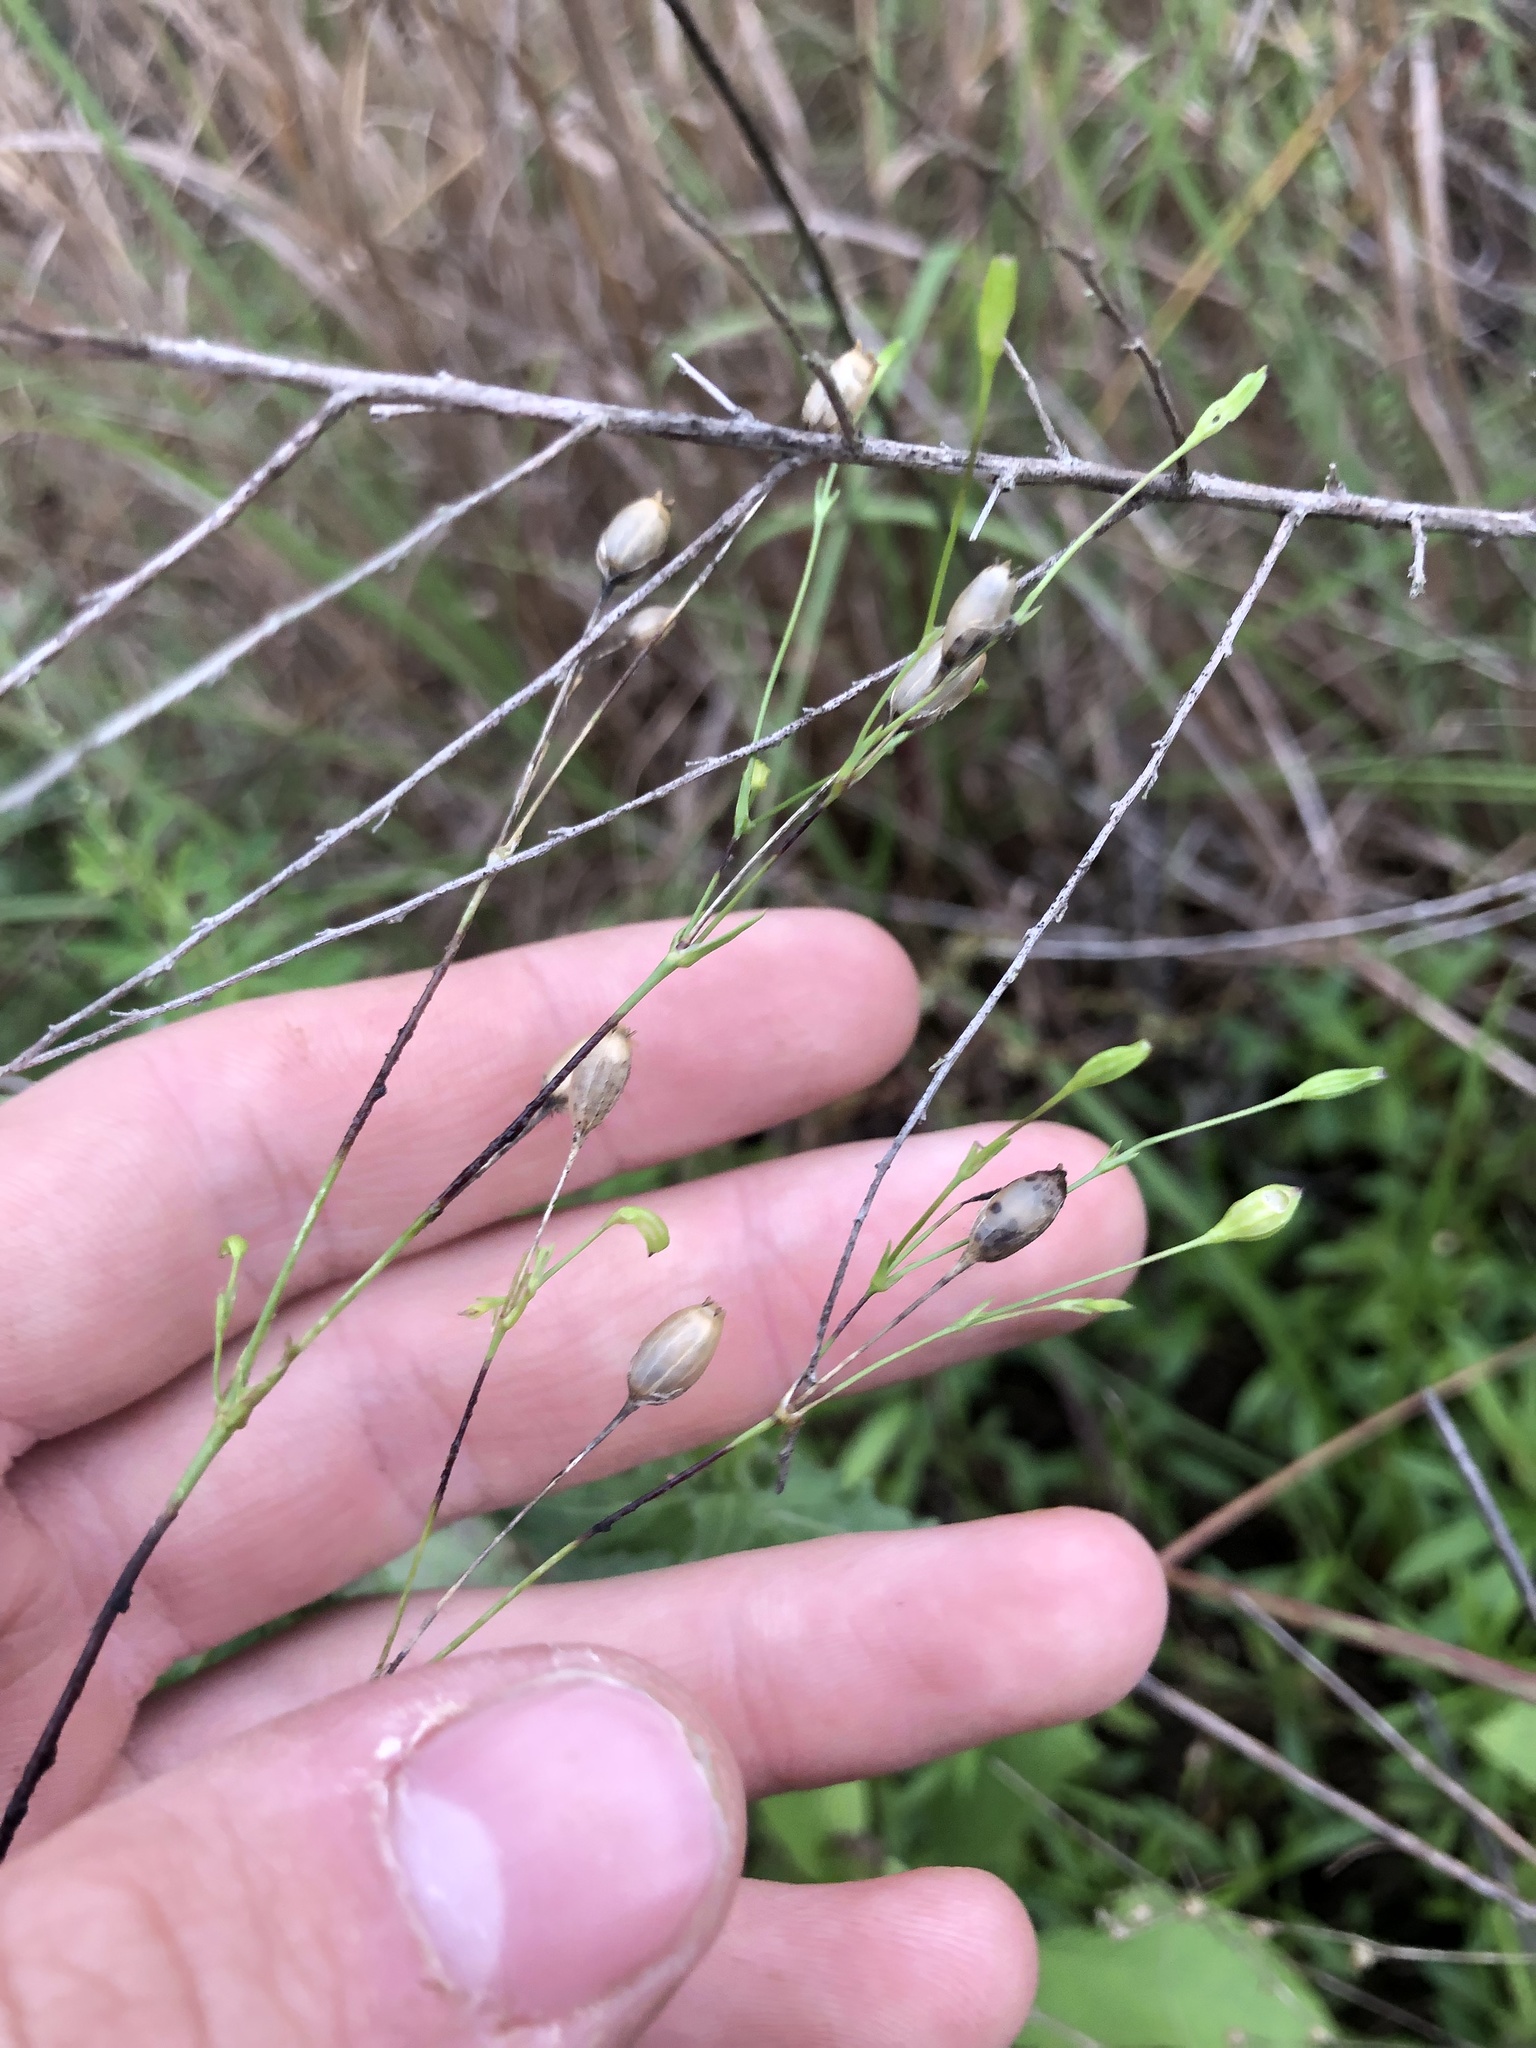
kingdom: Plantae
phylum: Tracheophyta
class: Magnoliopsida
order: Caryophyllales
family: Caryophyllaceae
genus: Silene
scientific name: Silene antirrhina
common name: Sleepy catchfly
